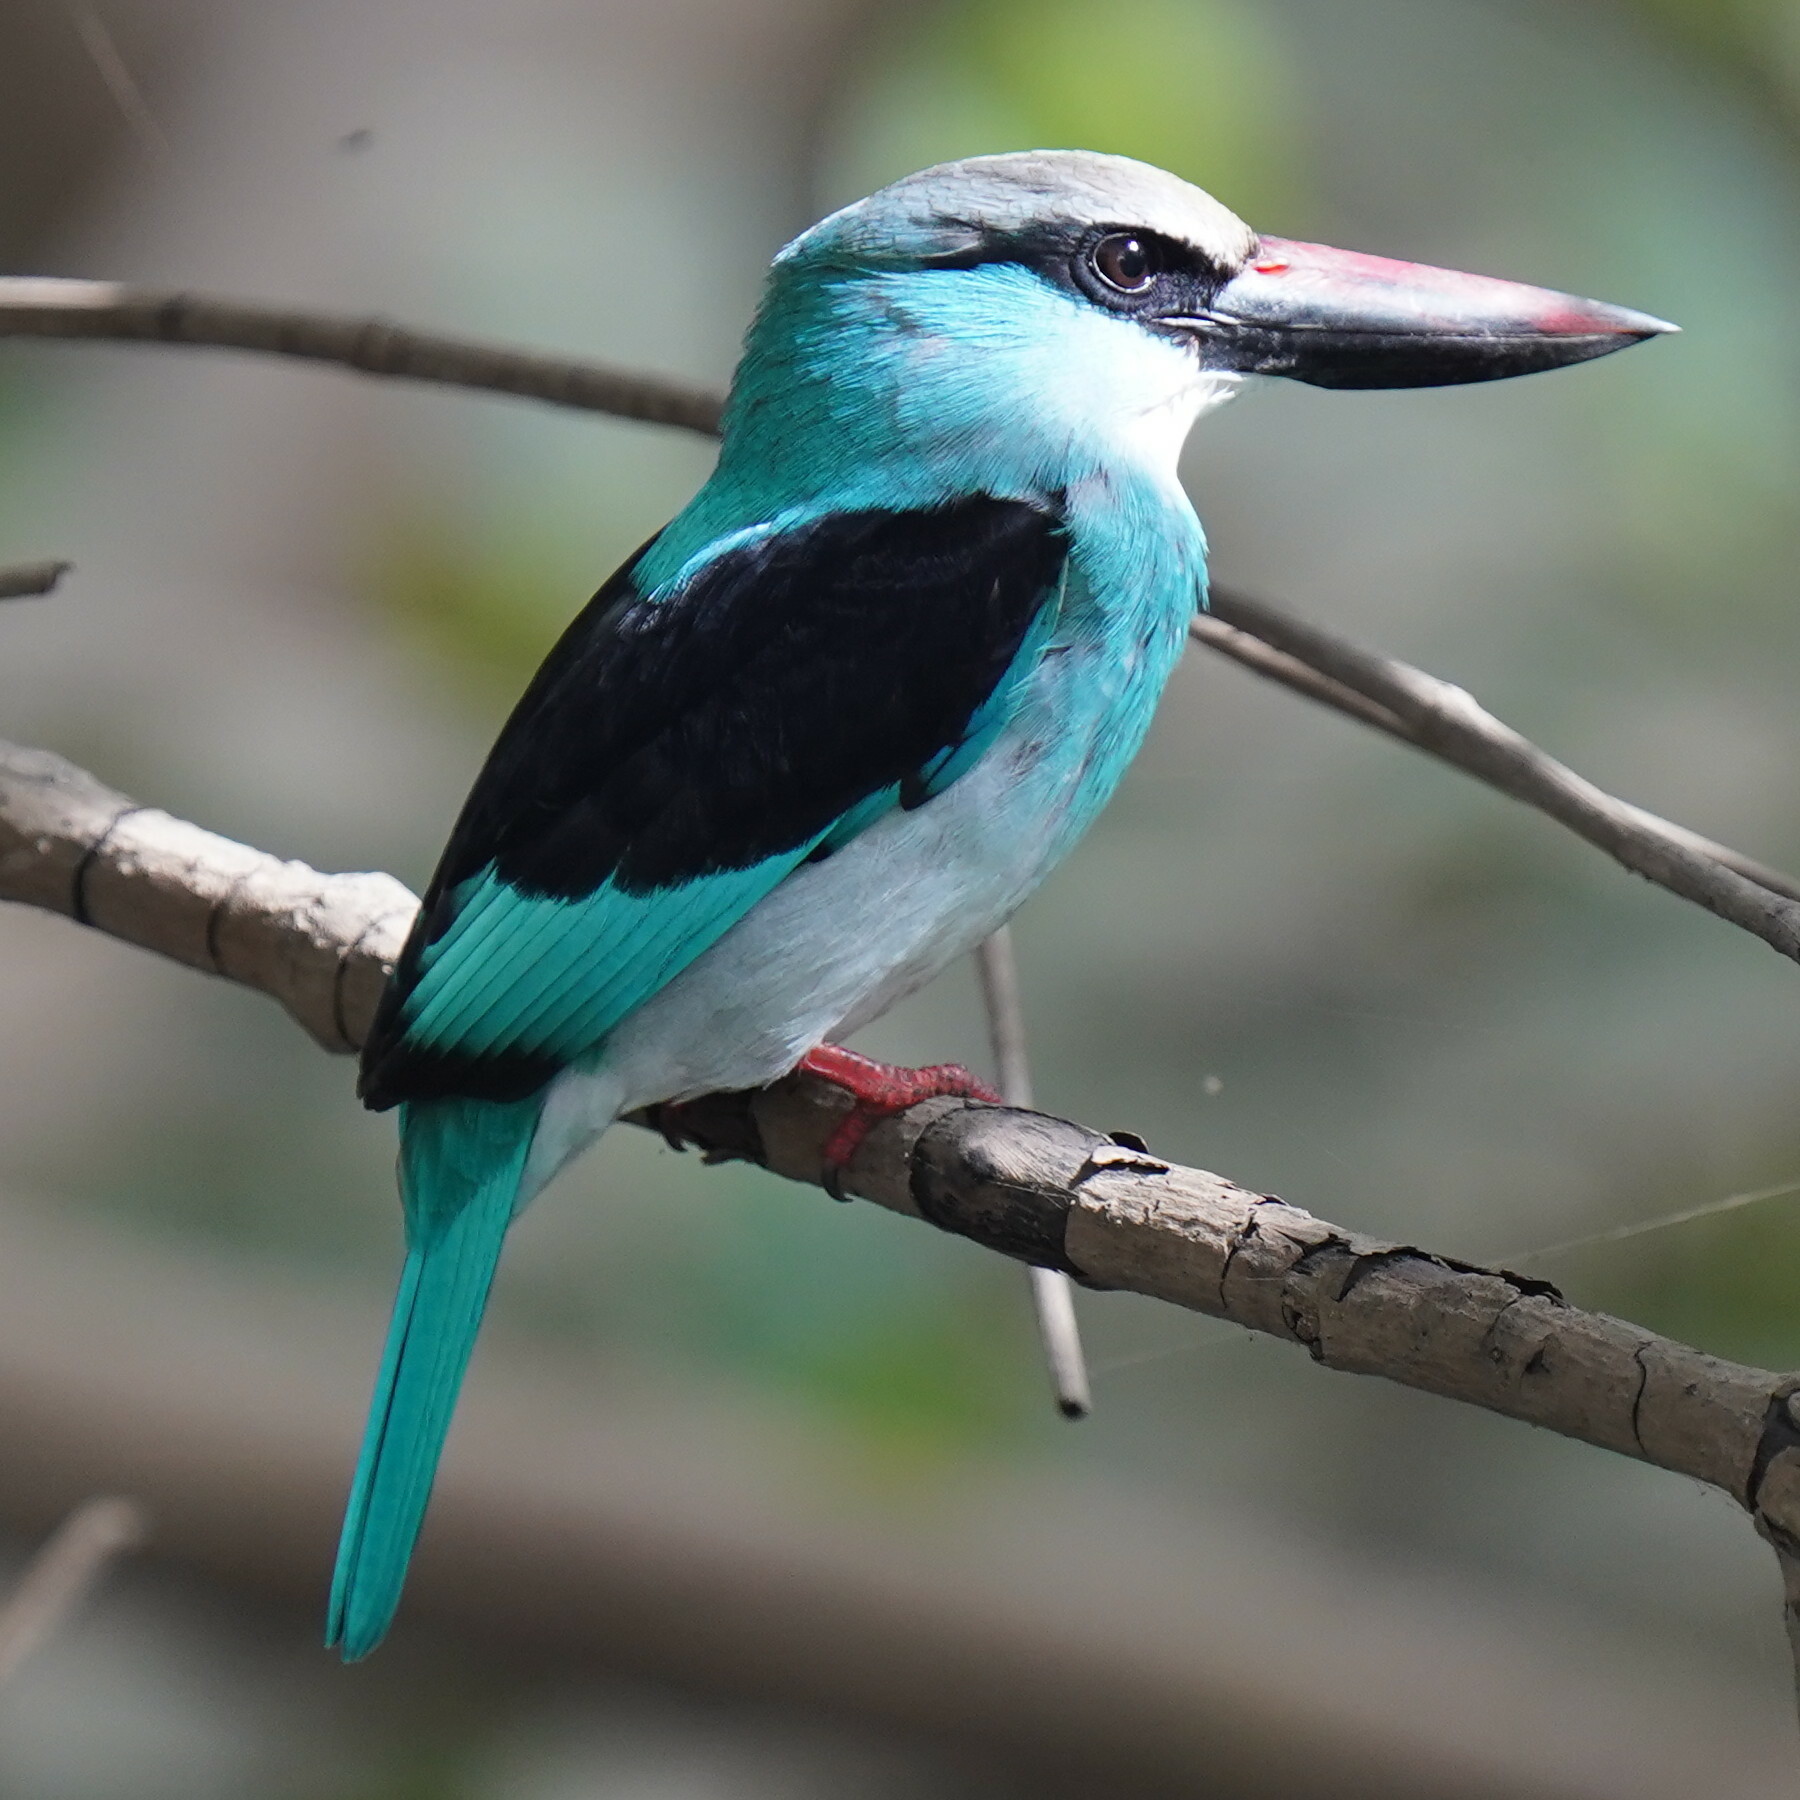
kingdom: Animalia
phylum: Chordata
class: Aves
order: Coraciiformes
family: Alcedinidae
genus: Halcyon
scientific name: Halcyon malimbica
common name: Blue-breasted kingfisher
